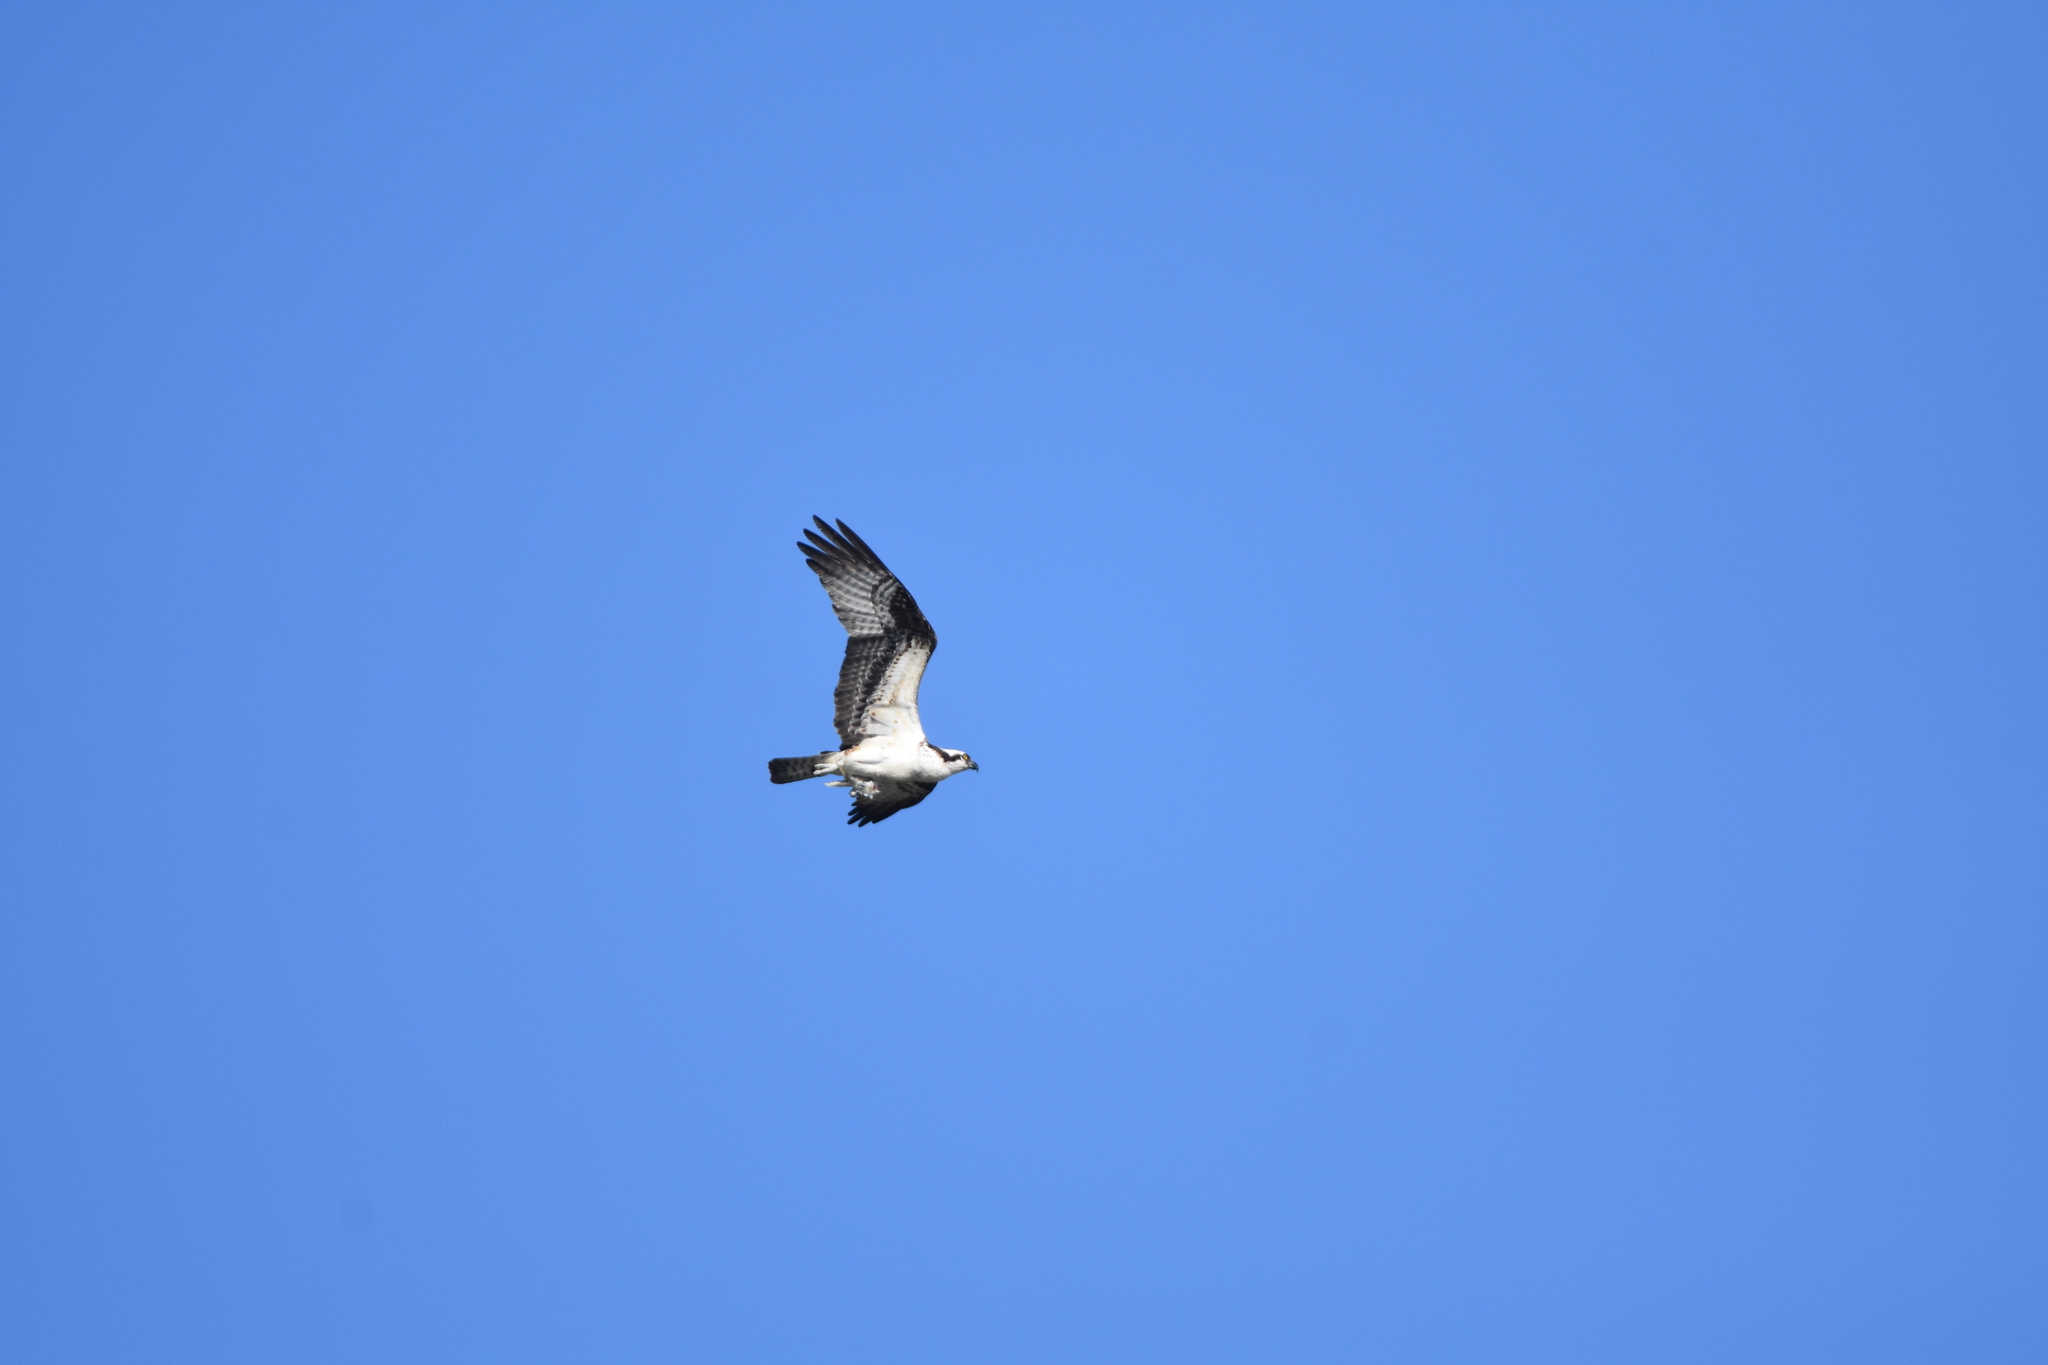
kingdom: Animalia
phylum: Chordata
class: Aves
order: Accipitriformes
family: Pandionidae
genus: Pandion
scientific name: Pandion haliaetus
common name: Osprey
